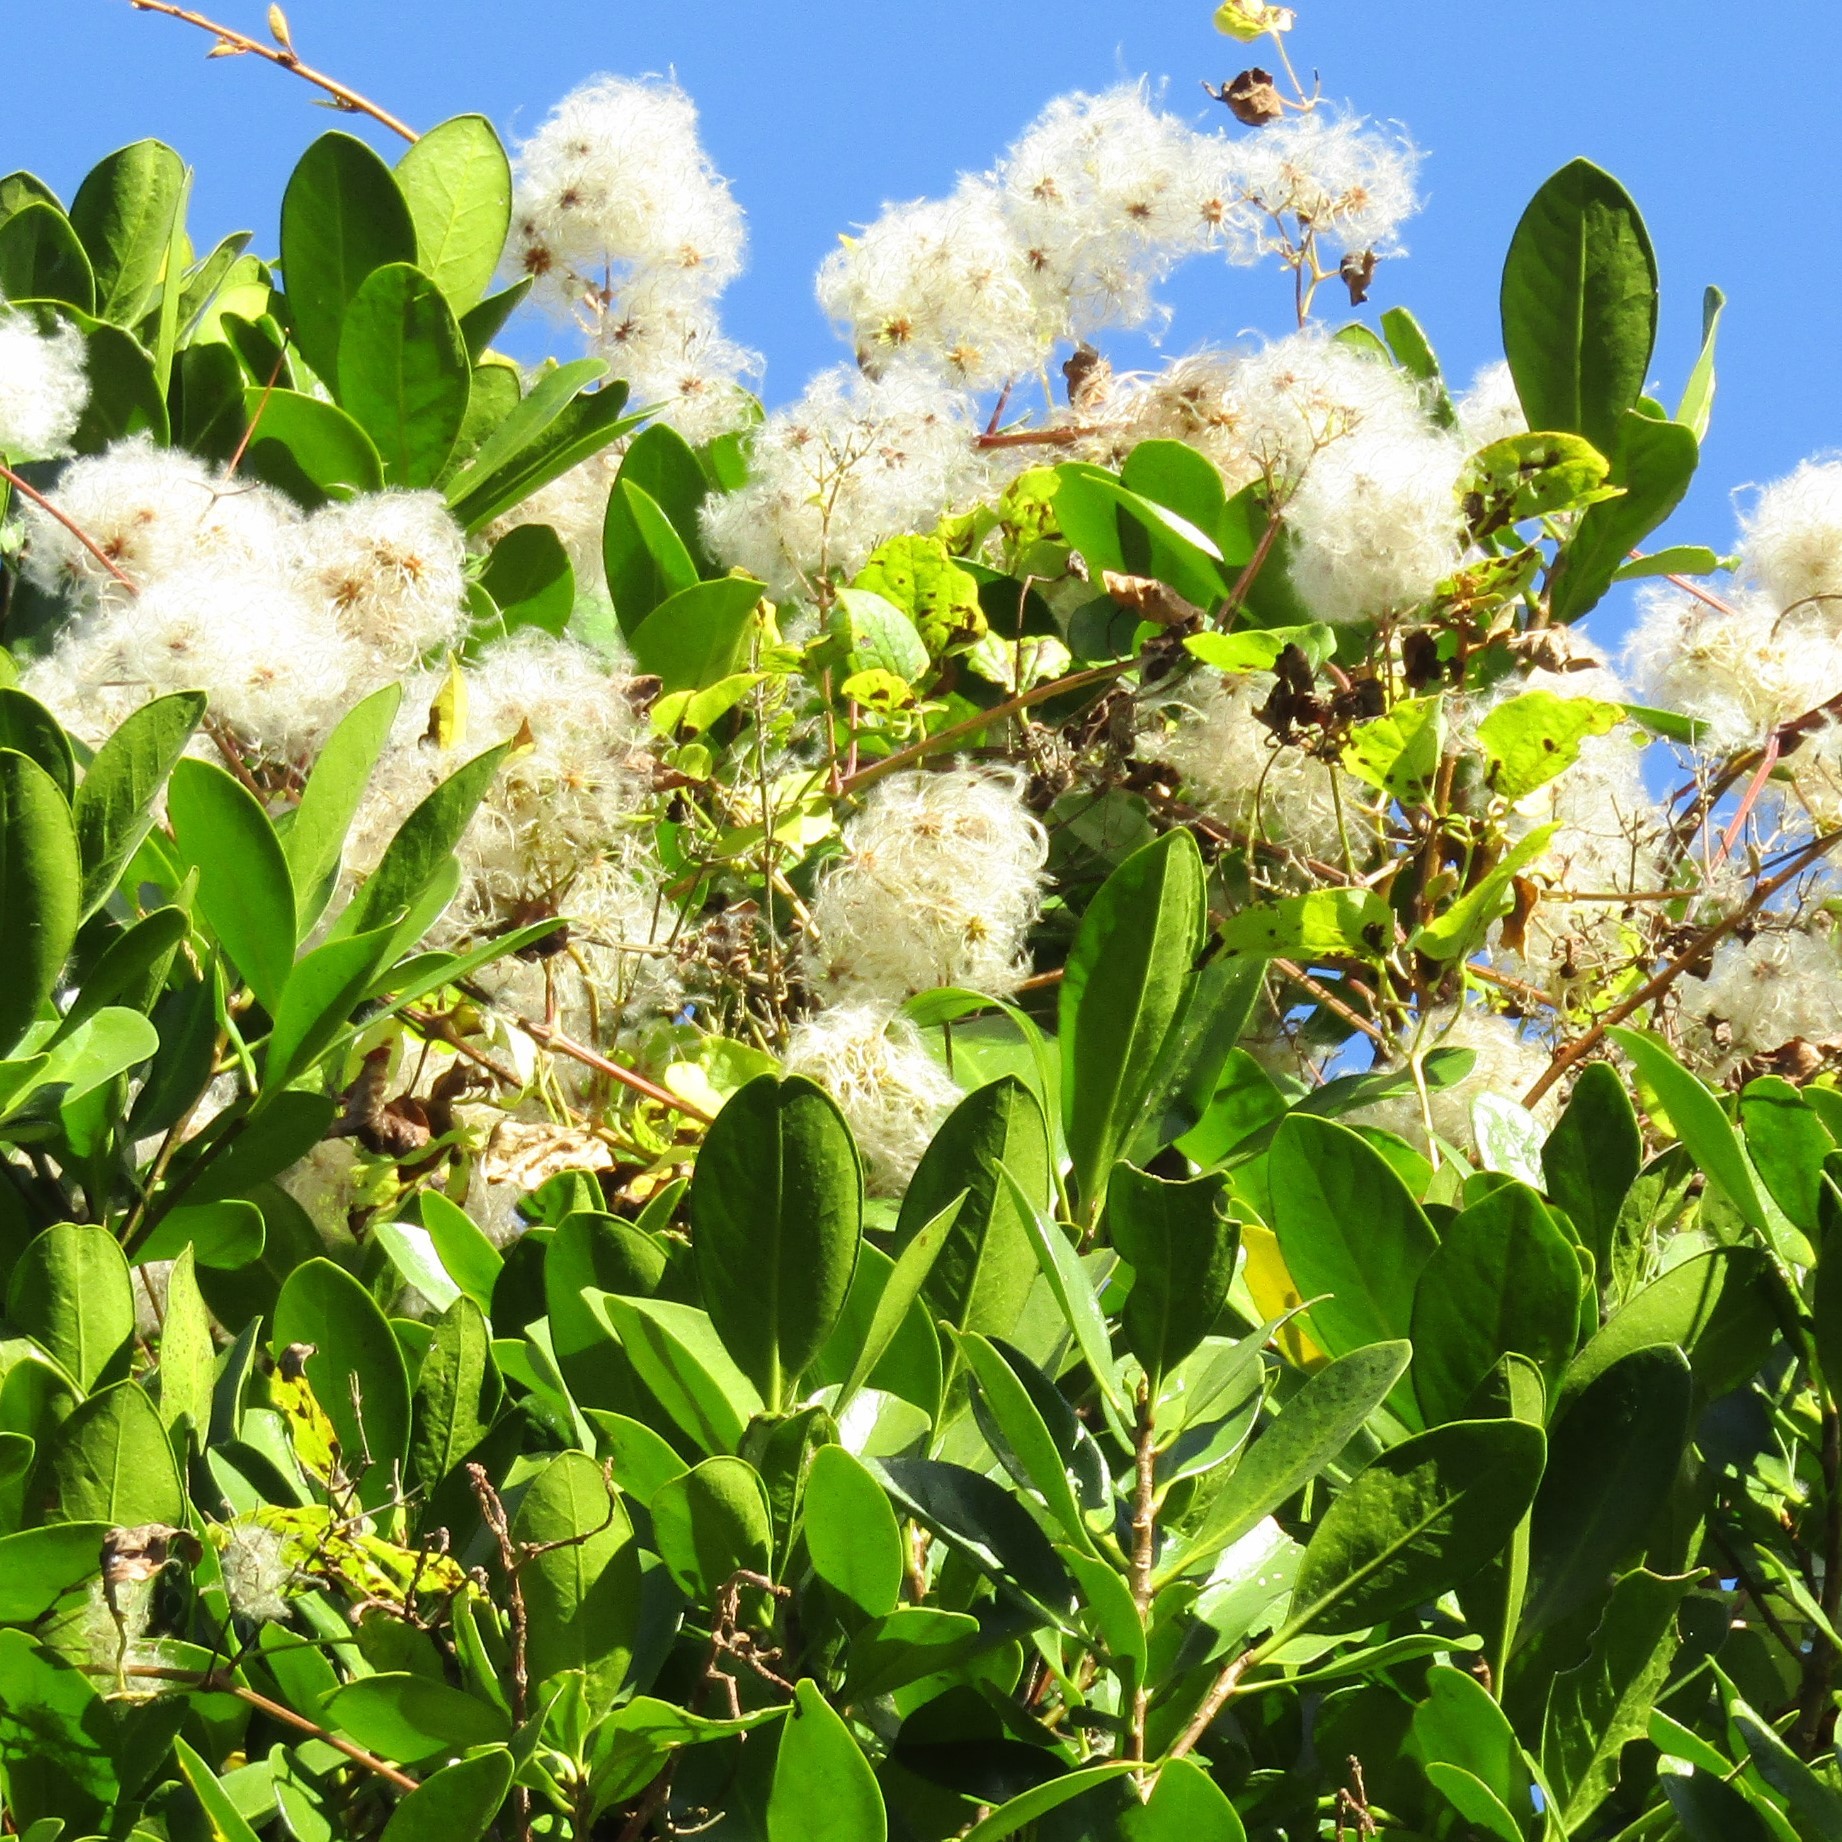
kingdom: Plantae
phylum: Tracheophyta
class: Magnoliopsida
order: Ranunculales
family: Ranunculaceae
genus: Clematis
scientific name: Clematis vitalba
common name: Evergreen clematis
